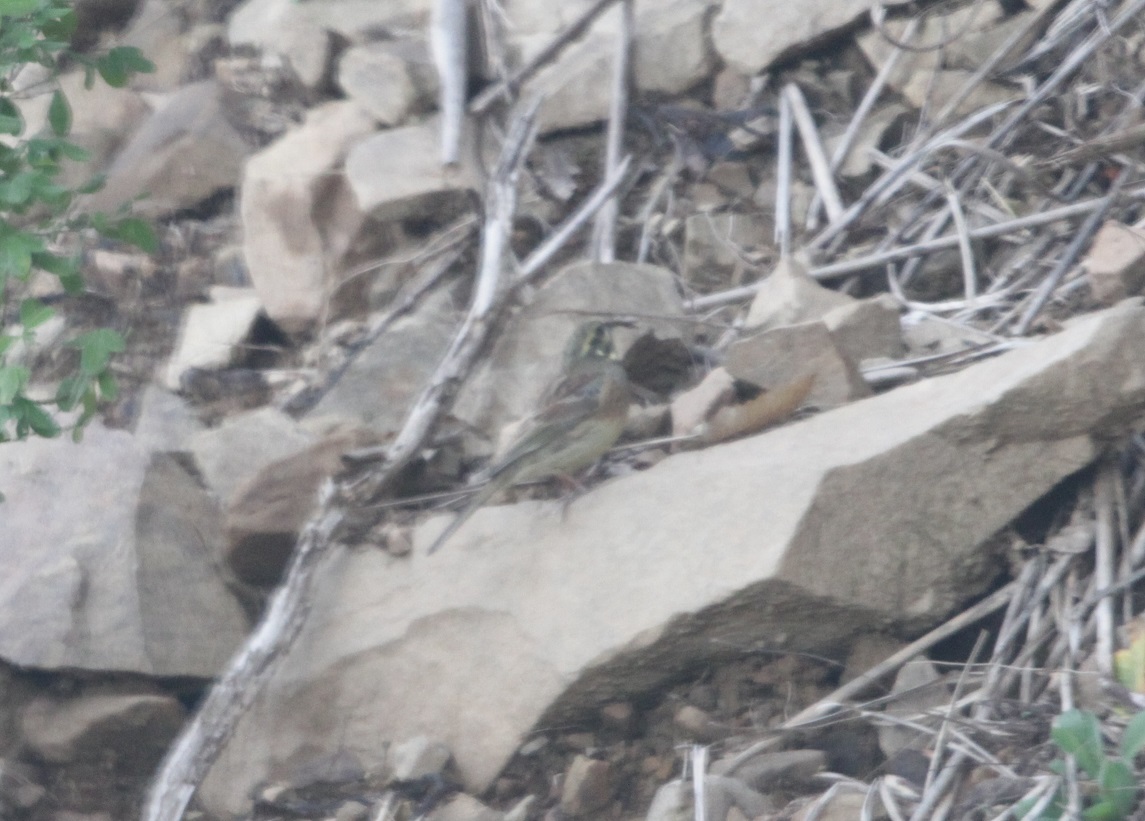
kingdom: Animalia
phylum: Chordata
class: Aves
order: Passeriformes
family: Emberizidae
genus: Emberiza
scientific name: Emberiza cirlus
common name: Cirl bunting
